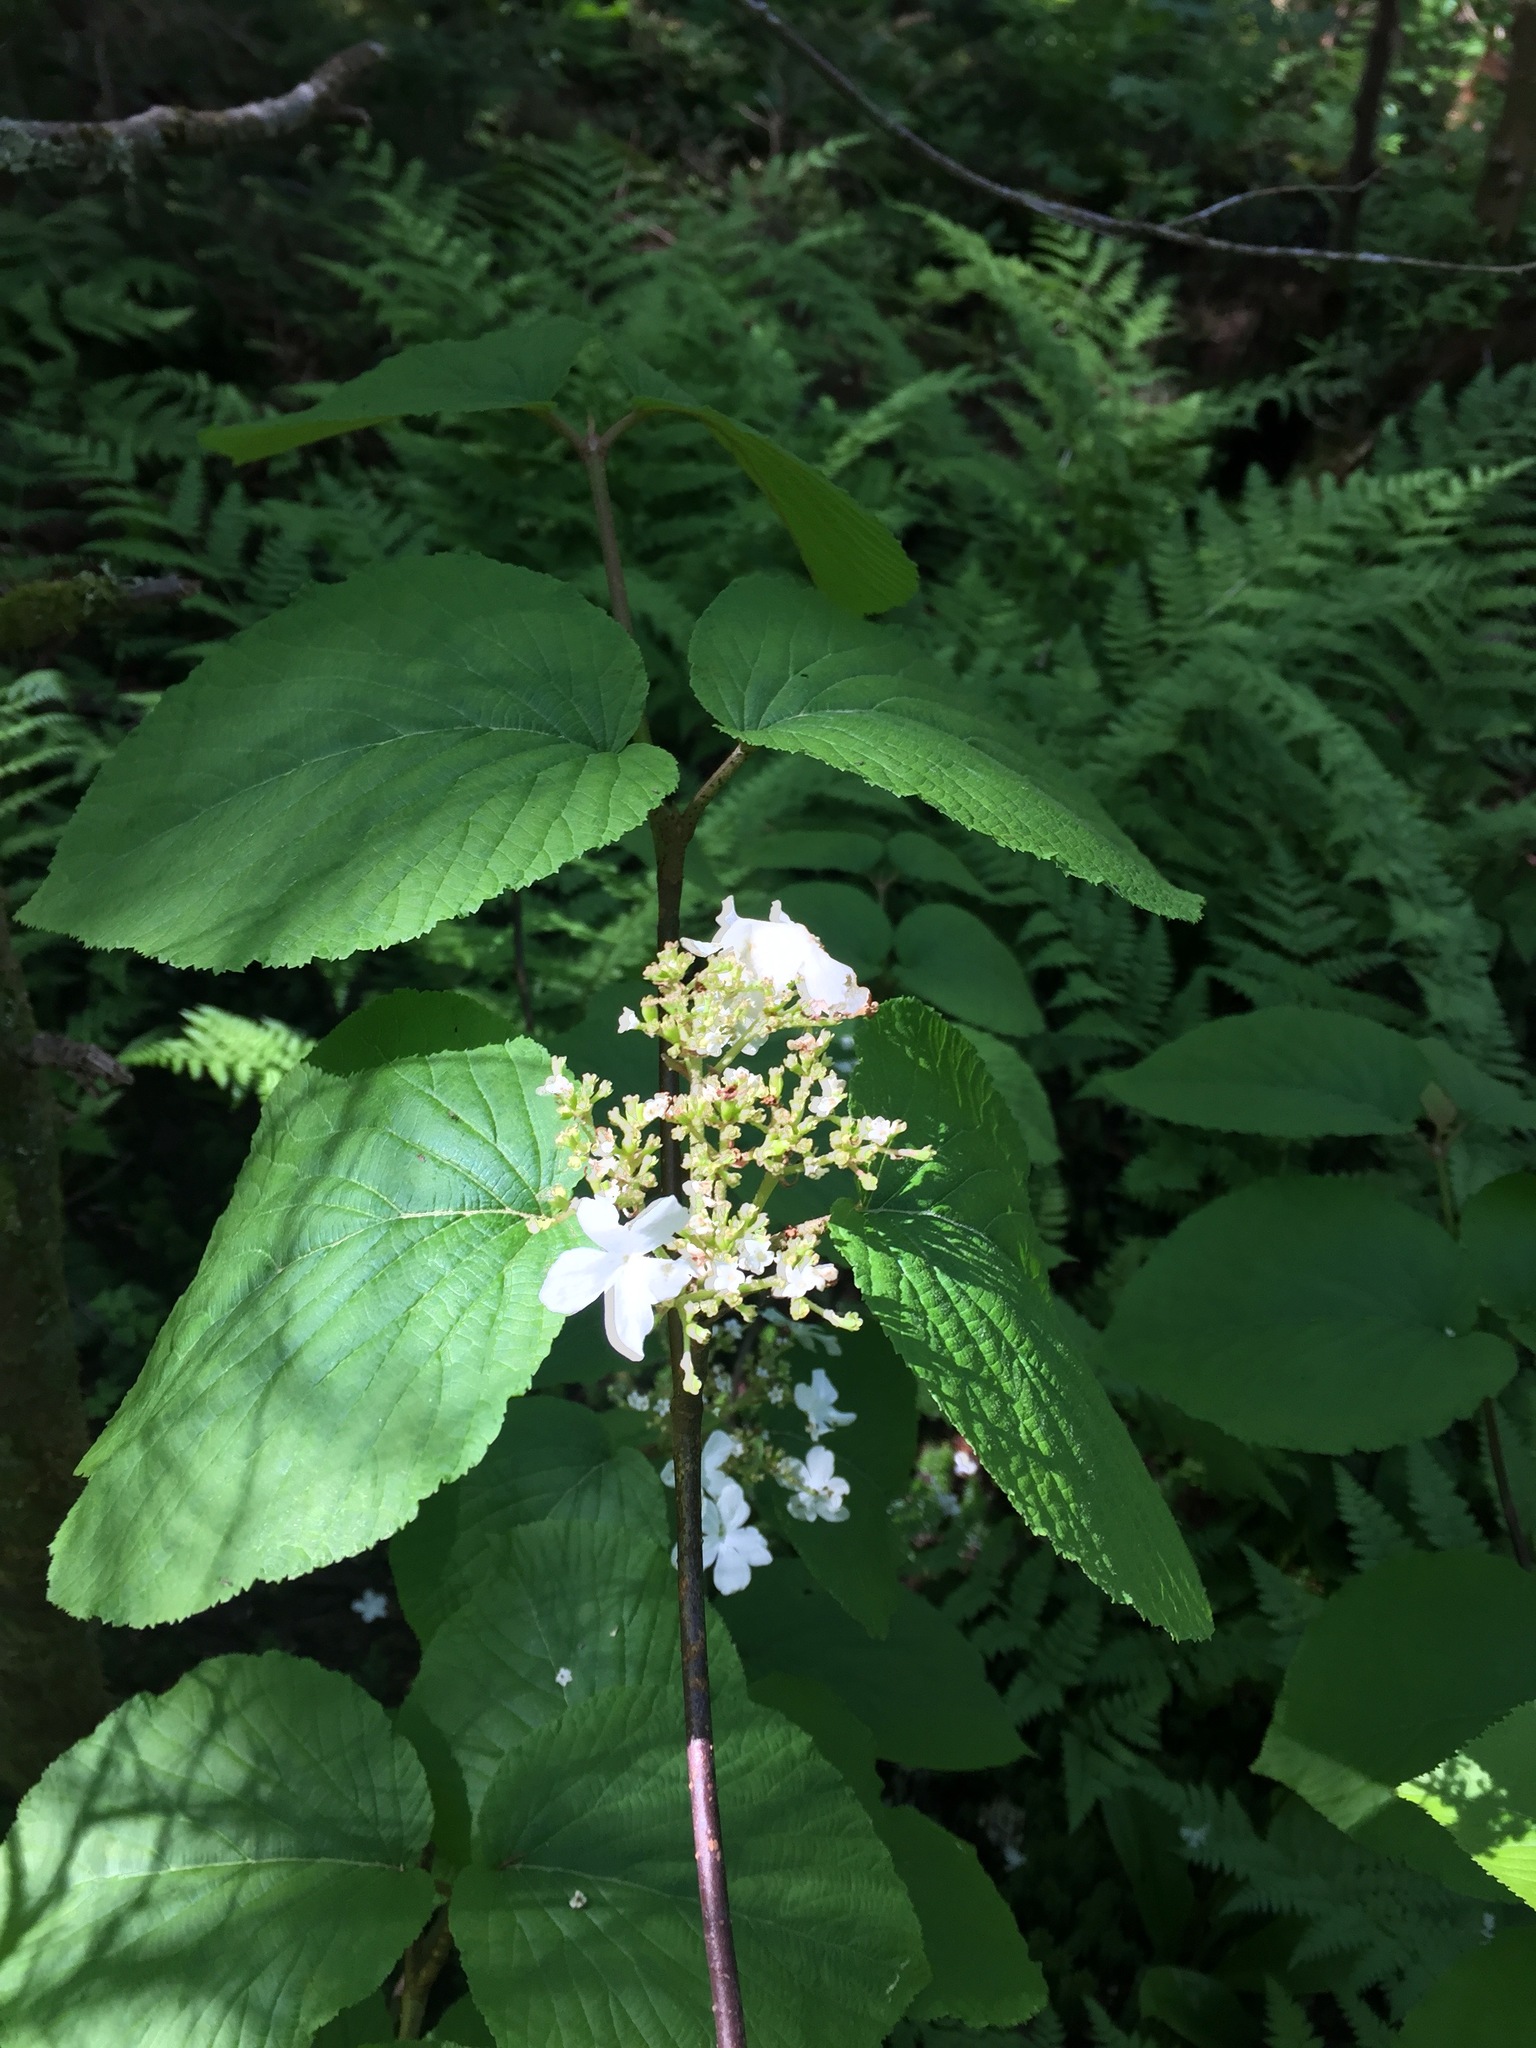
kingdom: Plantae
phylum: Tracheophyta
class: Magnoliopsida
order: Dipsacales
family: Viburnaceae
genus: Viburnum
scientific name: Viburnum lantanoides
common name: Hobblebush
